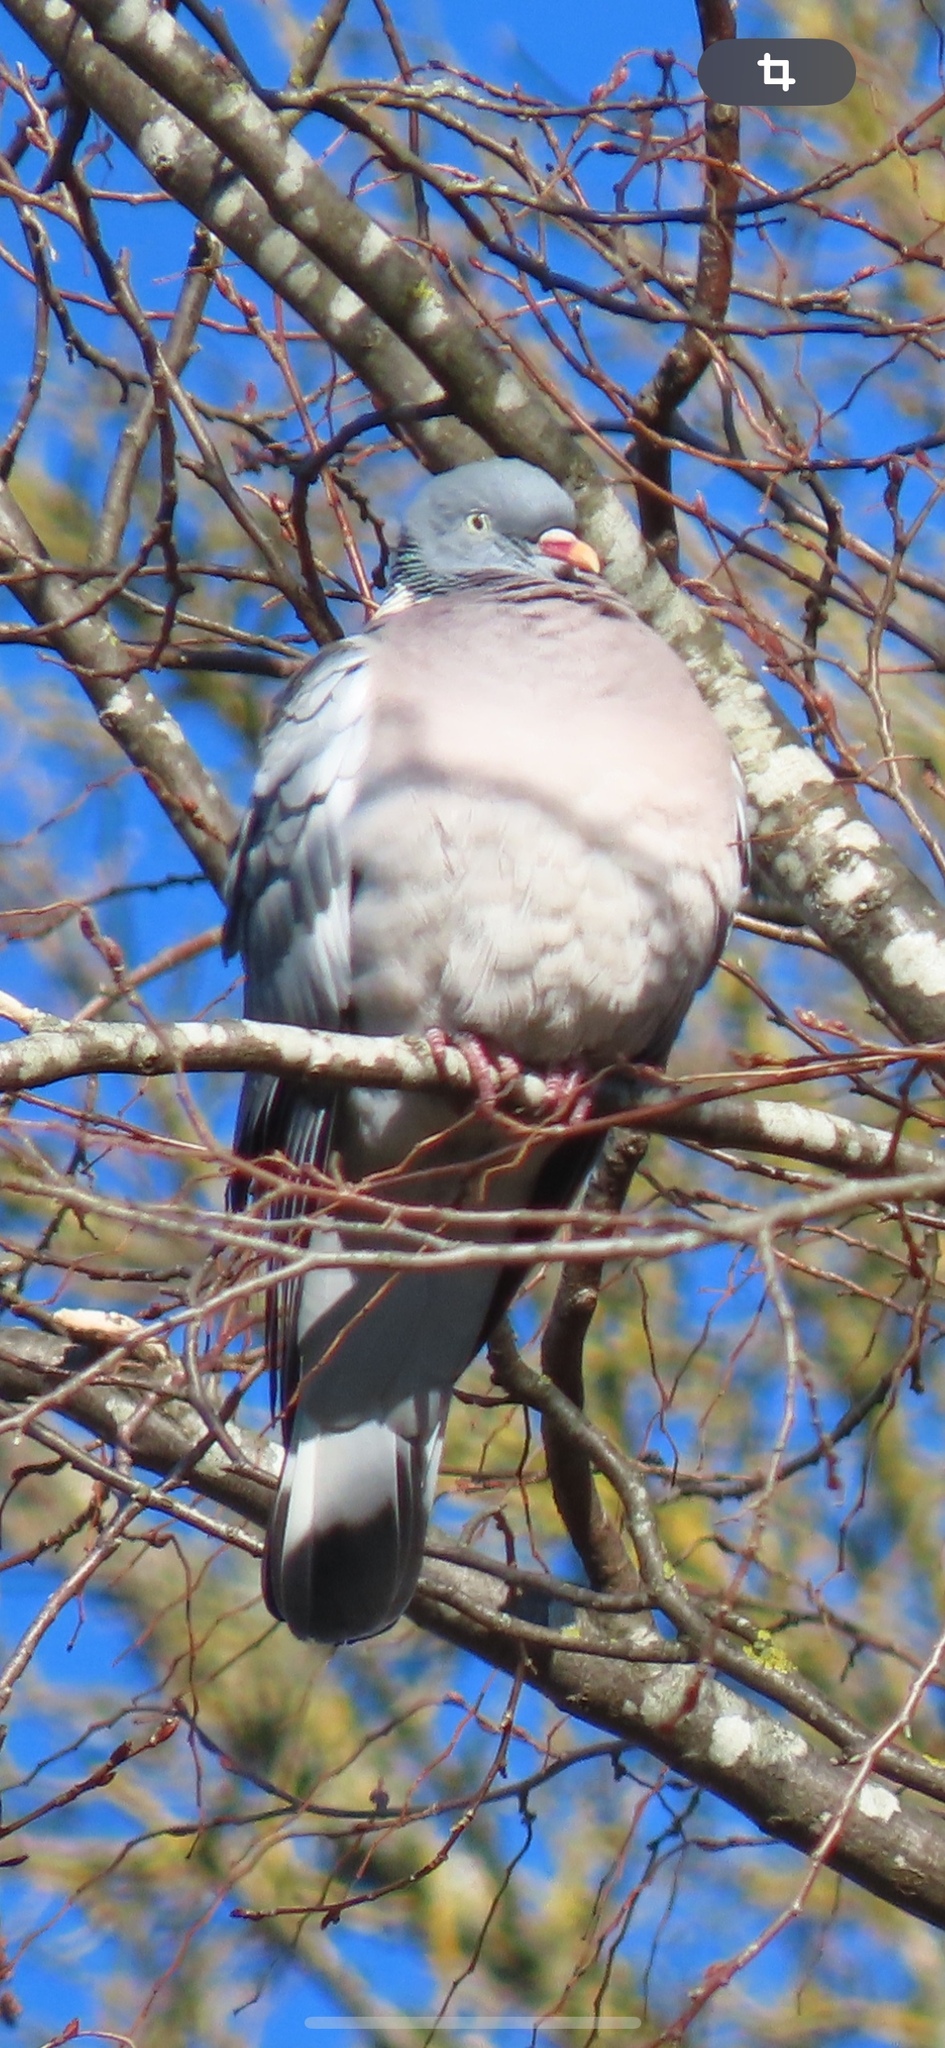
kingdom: Animalia
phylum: Chordata
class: Aves
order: Columbiformes
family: Columbidae
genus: Columba
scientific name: Columba palumbus
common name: Common wood pigeon
